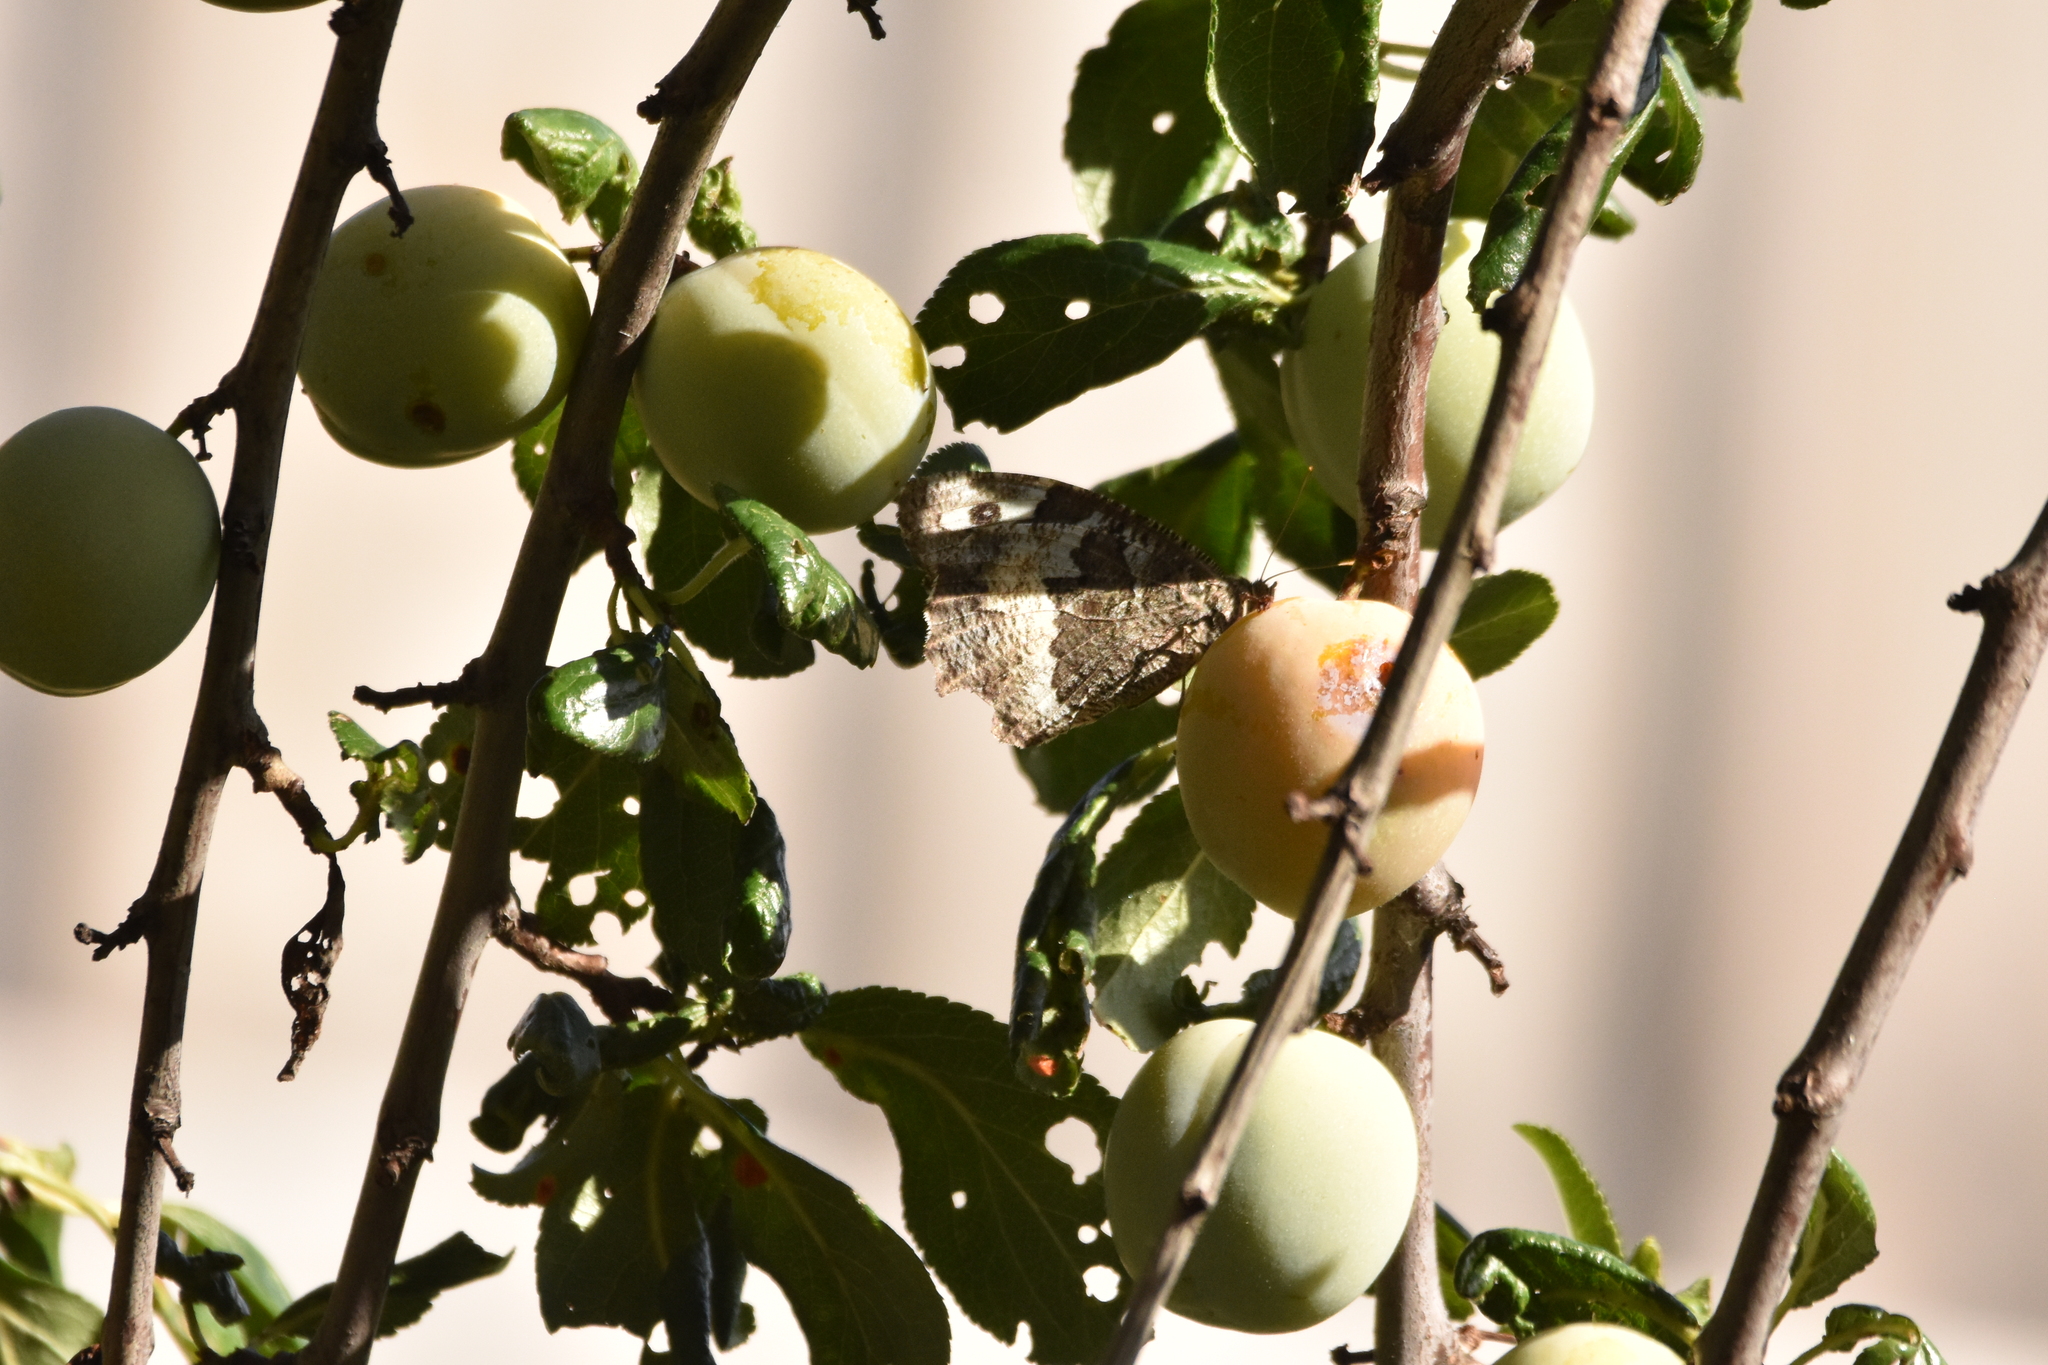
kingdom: Animalia
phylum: Arthropoda
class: Insecta
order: Lepidoptera
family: Lycaenidae
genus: Loweia
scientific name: Loweia tityrus
